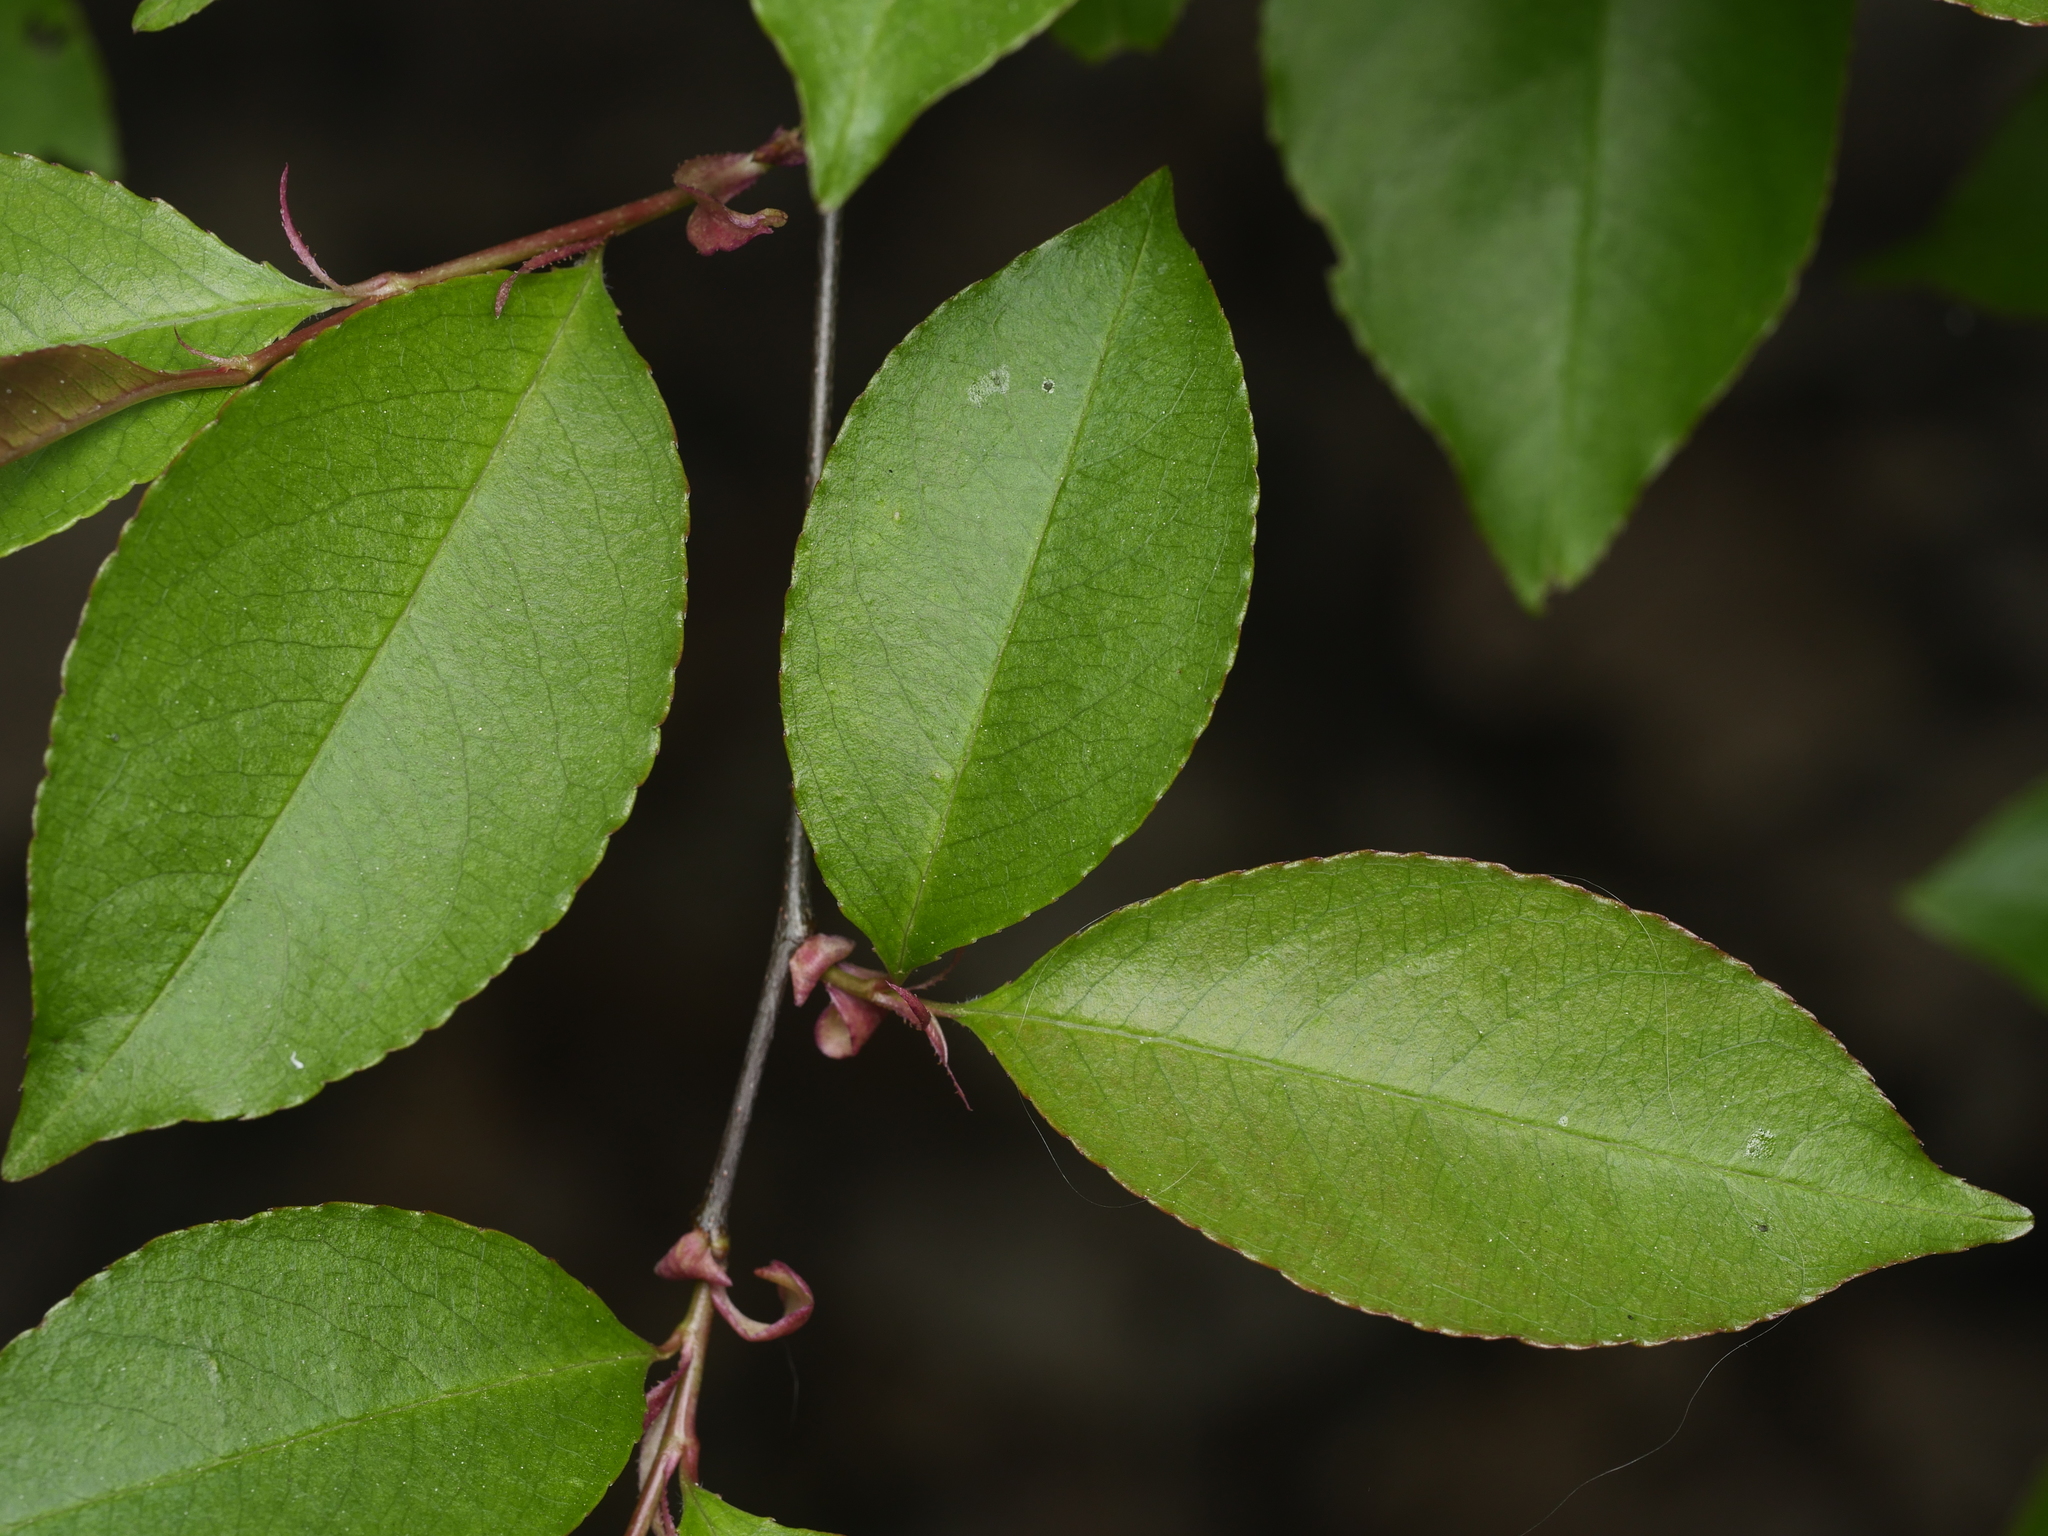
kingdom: Plantae
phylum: Tracheophyta
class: Magnoliopsida
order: Rosales
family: Rosaceae
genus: Prunus
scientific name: Prunus serotina
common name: Black cherry
